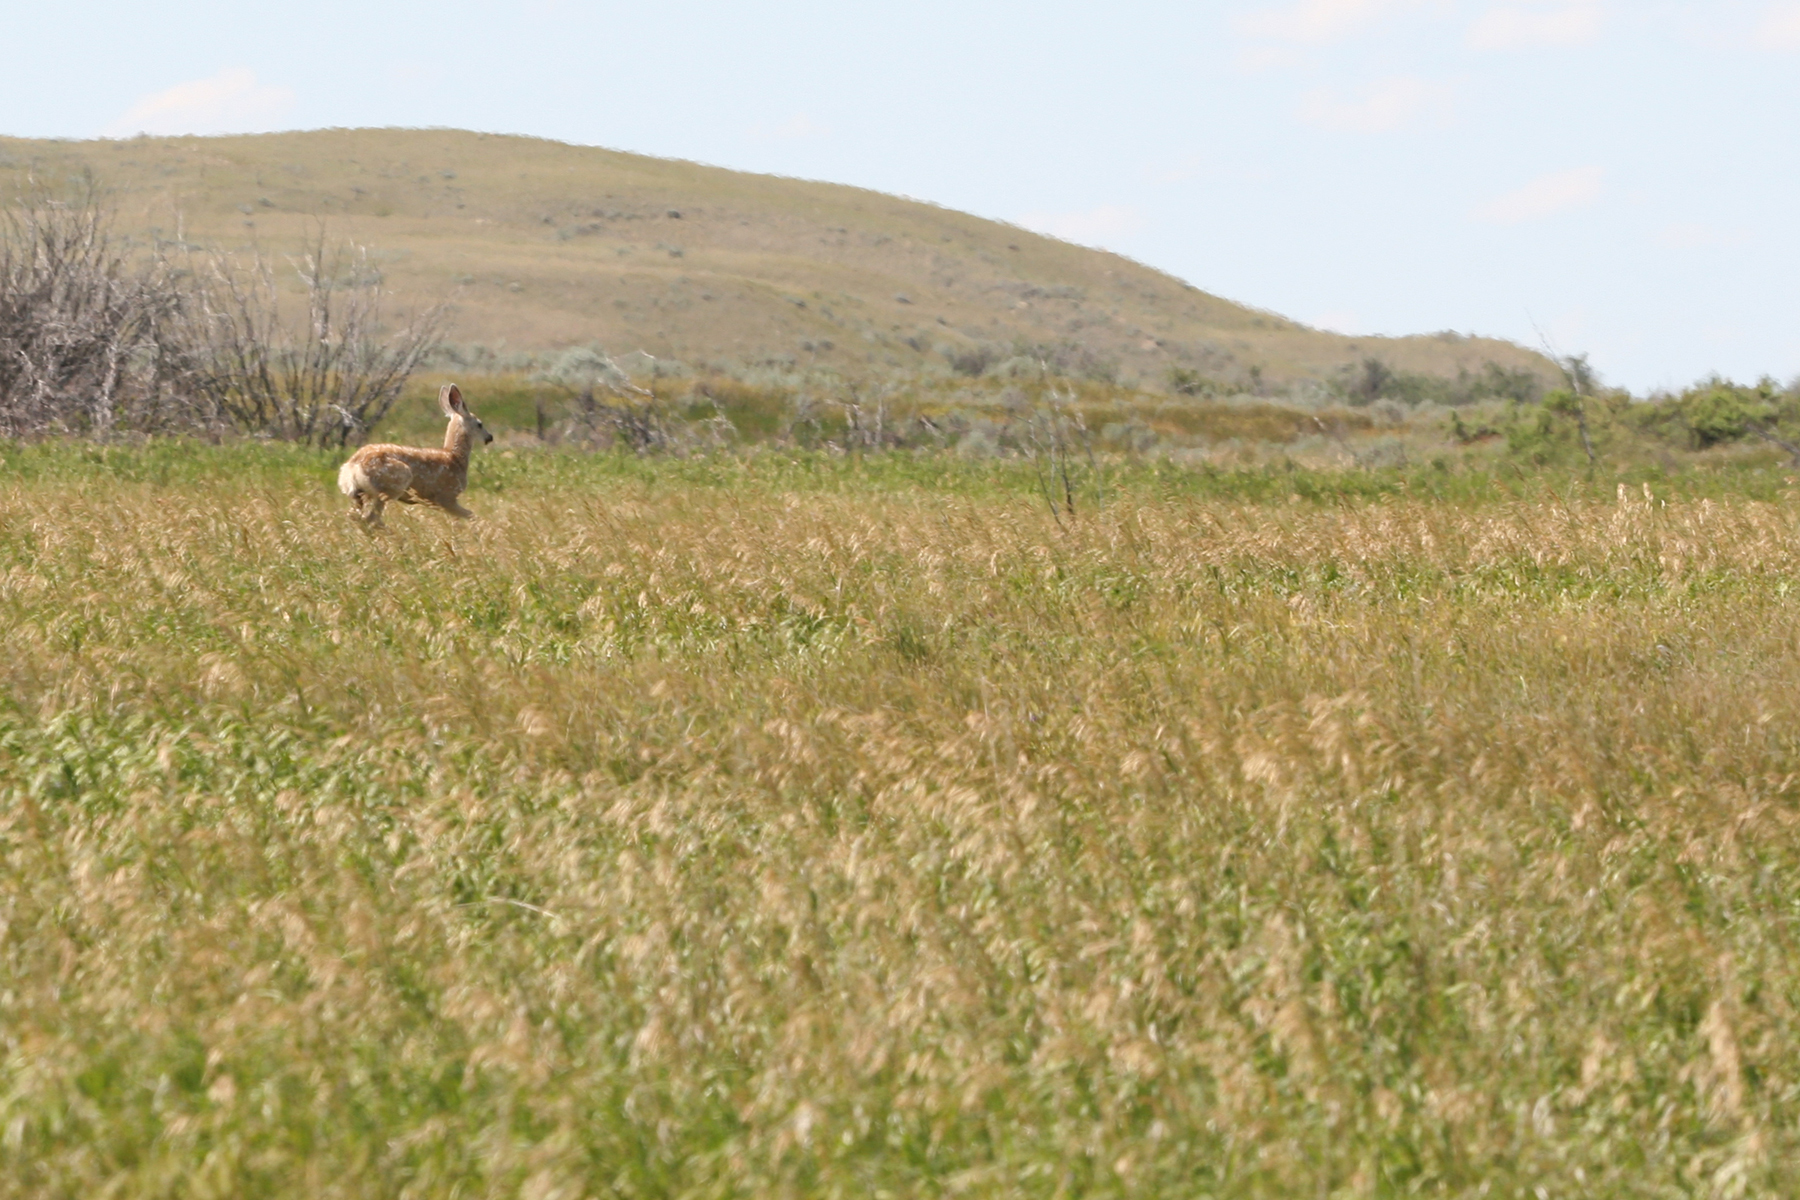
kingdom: Animalia
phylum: Chordata
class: Mammalia
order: Artiodactyla
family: Cervidae
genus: Odocoileus
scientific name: Odocoileus hemionus
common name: Mule deer
